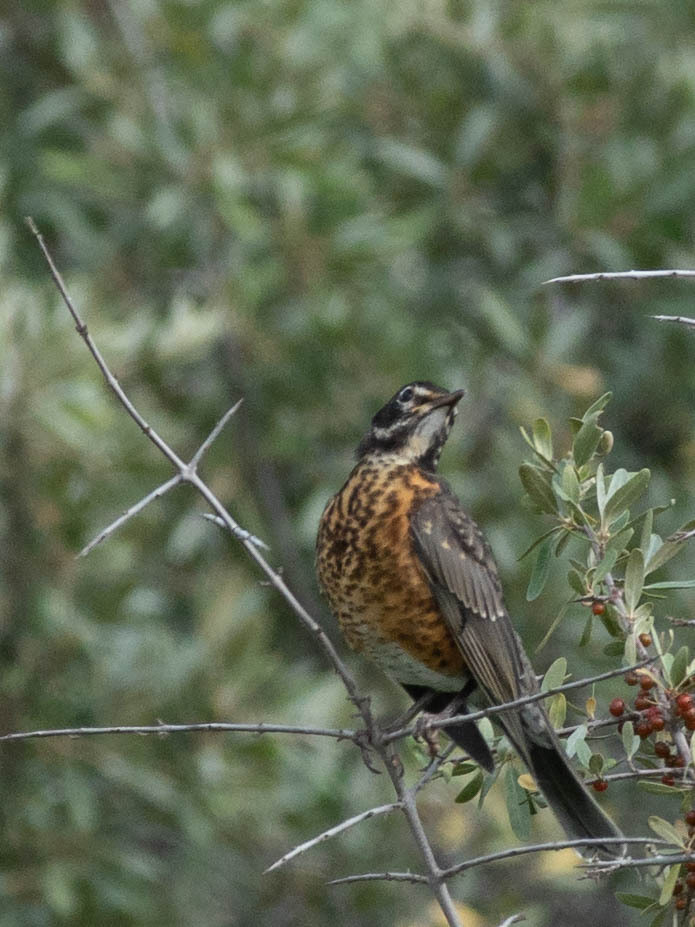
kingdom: Animalia
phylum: Chordata
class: Aves
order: Passeriformes
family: Turdidae
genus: Turdus
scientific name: Turdus migratorius
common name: American robin
